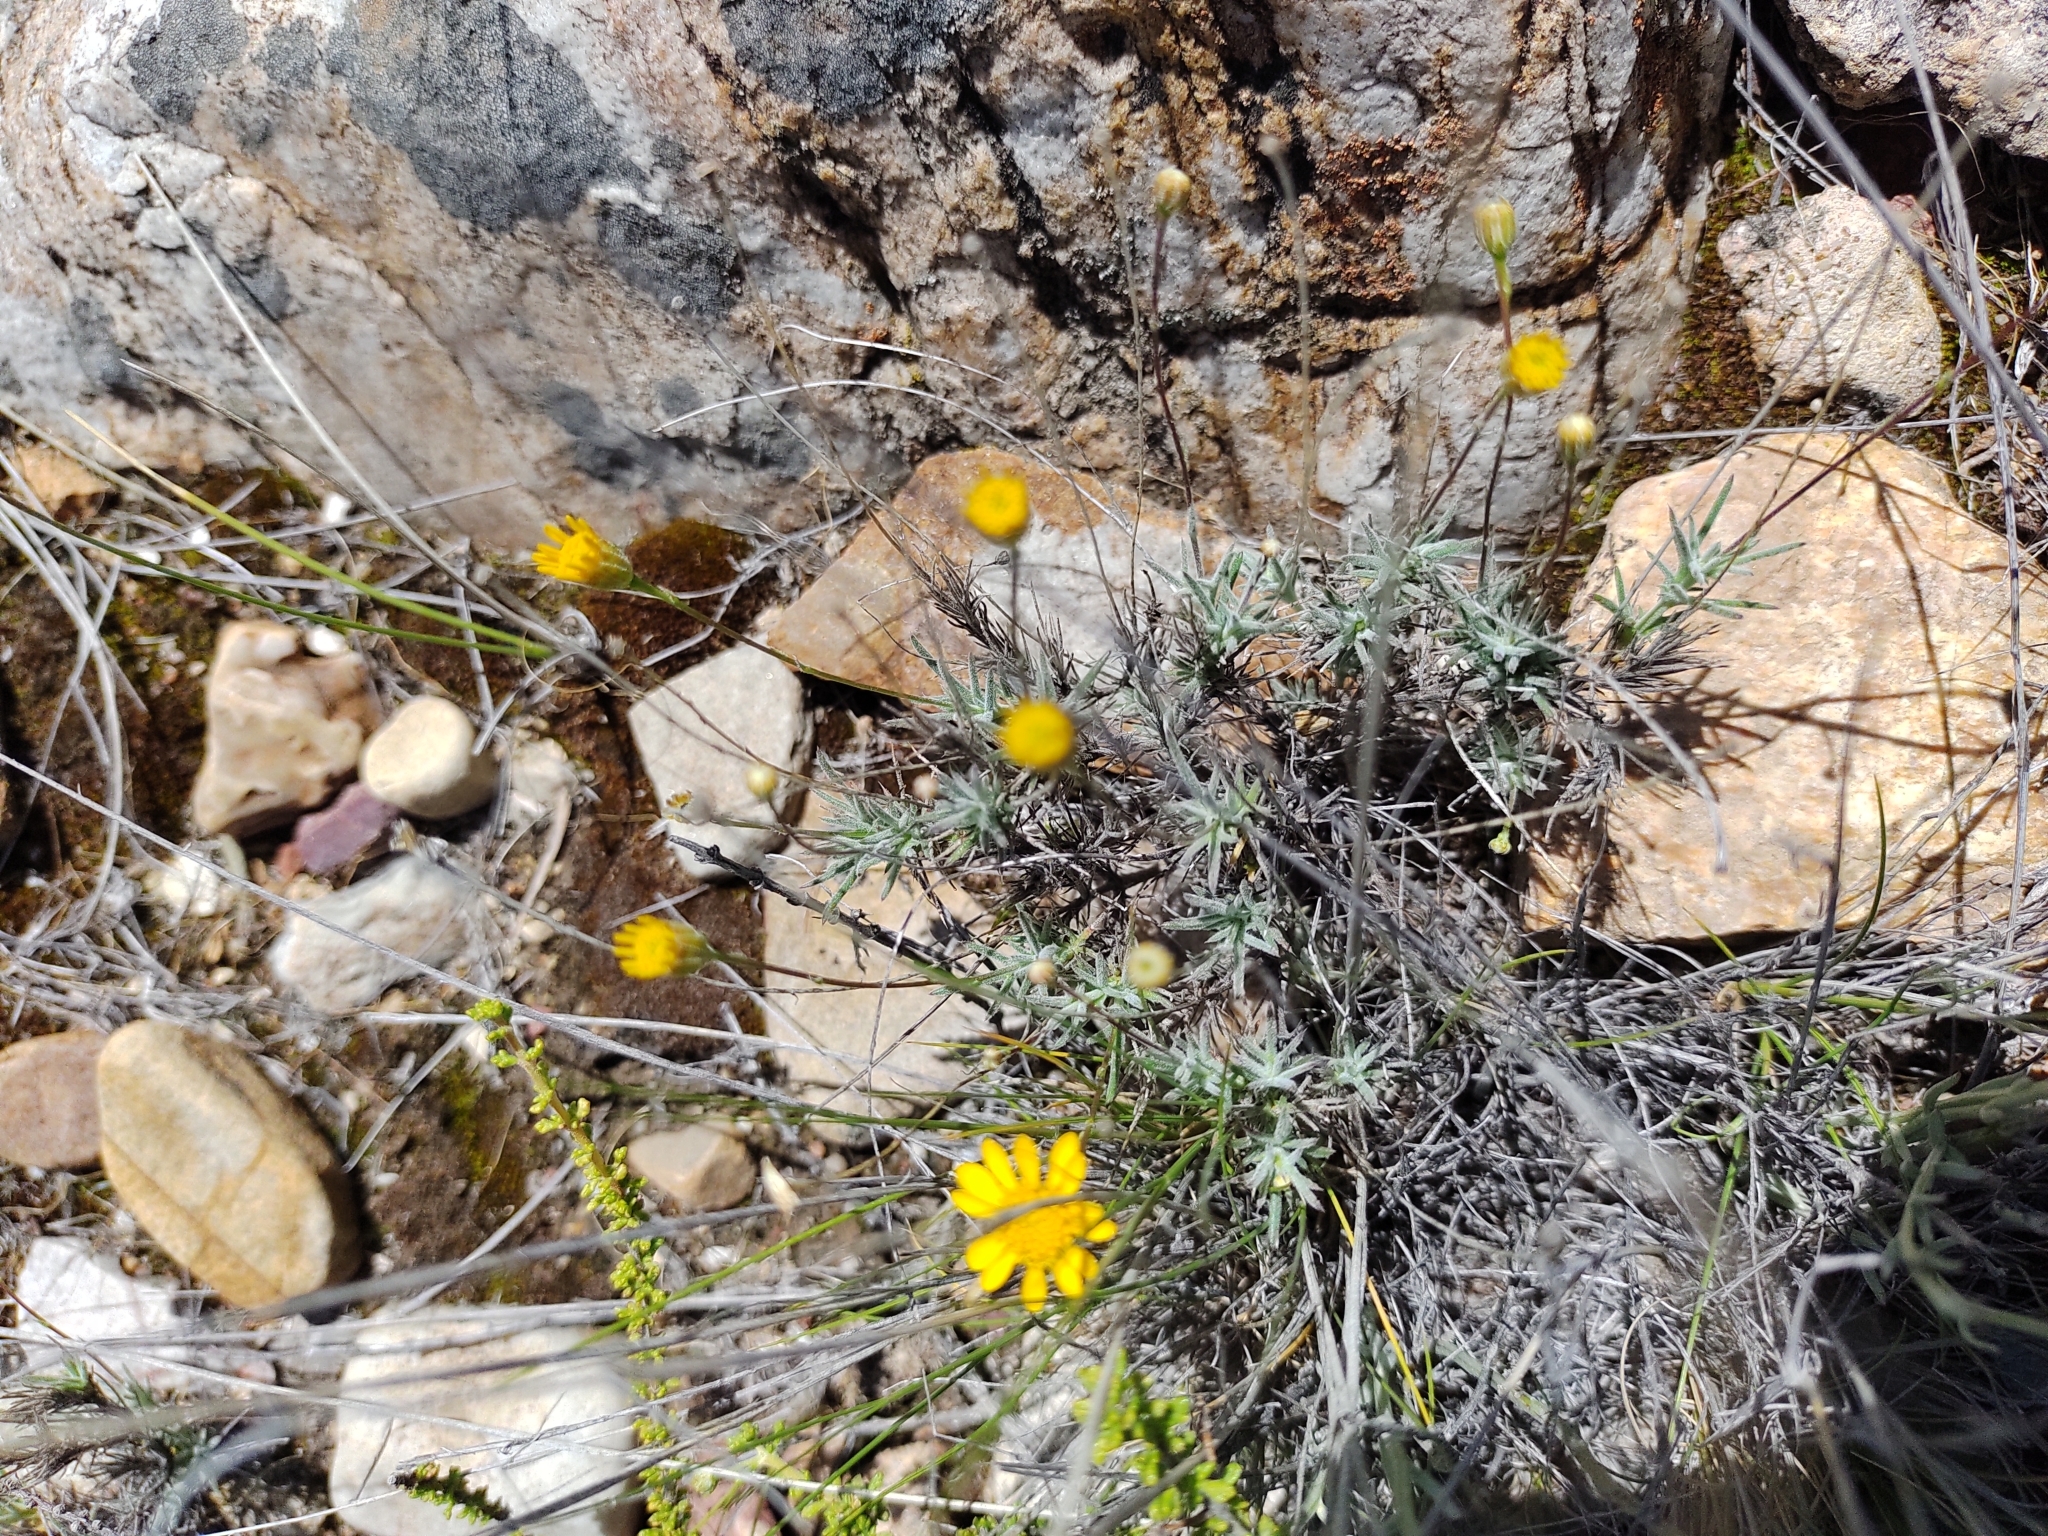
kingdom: Plantae
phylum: Tracheophyta
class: Magnoliopsida
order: Asterales
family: Asteraceae
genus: Thymophylla
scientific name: Thymophylla pentachaeta
